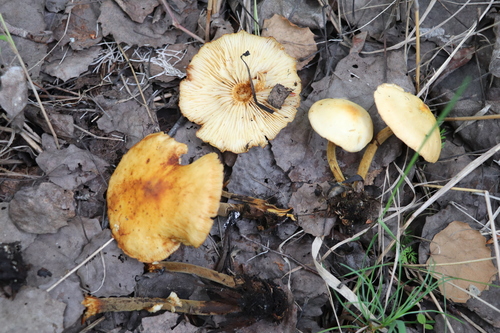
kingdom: Fungi
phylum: Basidiomycota
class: Agaricomycetes
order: Agaricales
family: Physalacriaceae
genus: Flammulina
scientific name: Flammulina populicola
